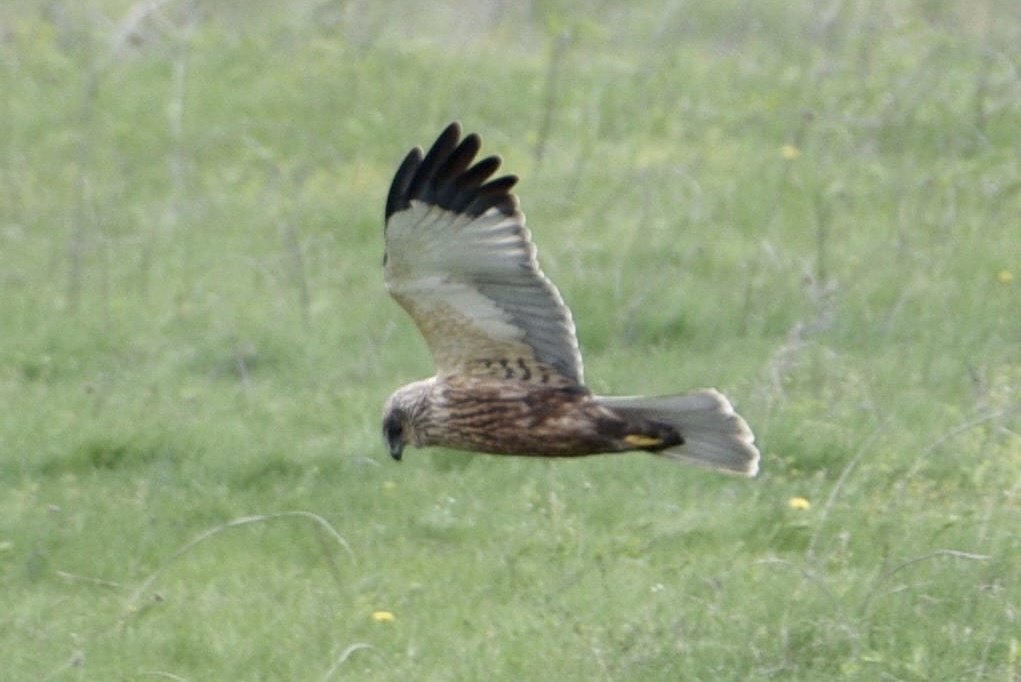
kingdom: Animalia
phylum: Chordata
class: Aves
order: Accipitriformes
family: Accipitridae
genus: Circus
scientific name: Circus aeruginosus
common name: Western marsh harrier
